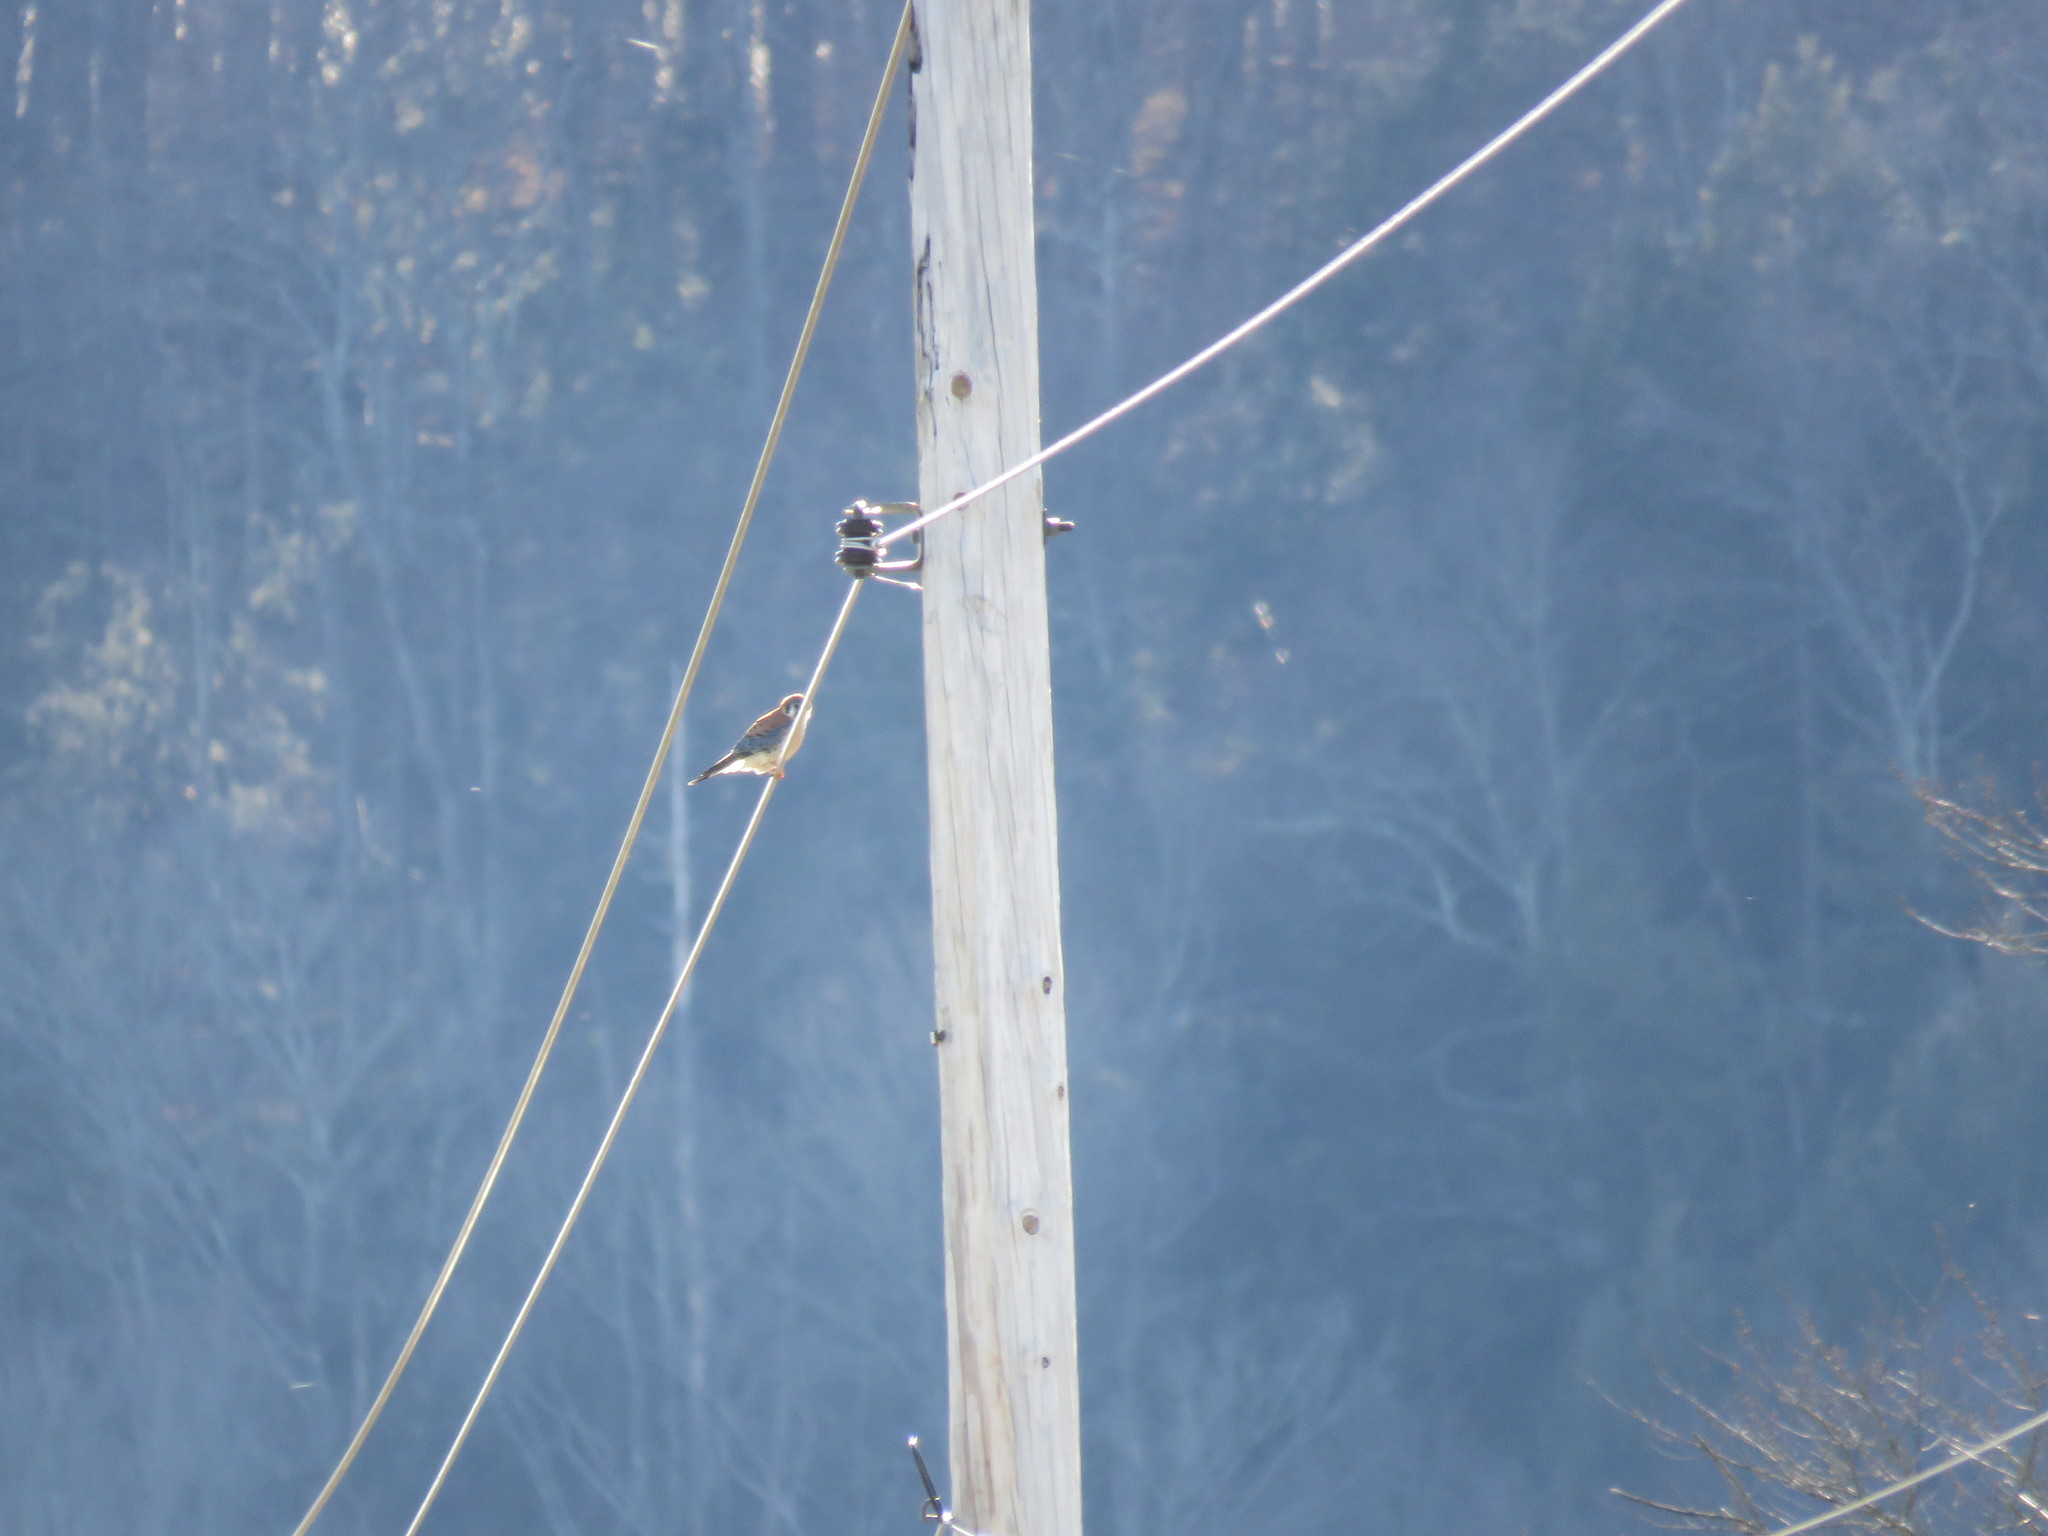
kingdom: Animalia
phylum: Chordata
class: Aves
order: Falconiformes
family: Falconidae
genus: Falco
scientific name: Falco sparverius
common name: American kestrel
